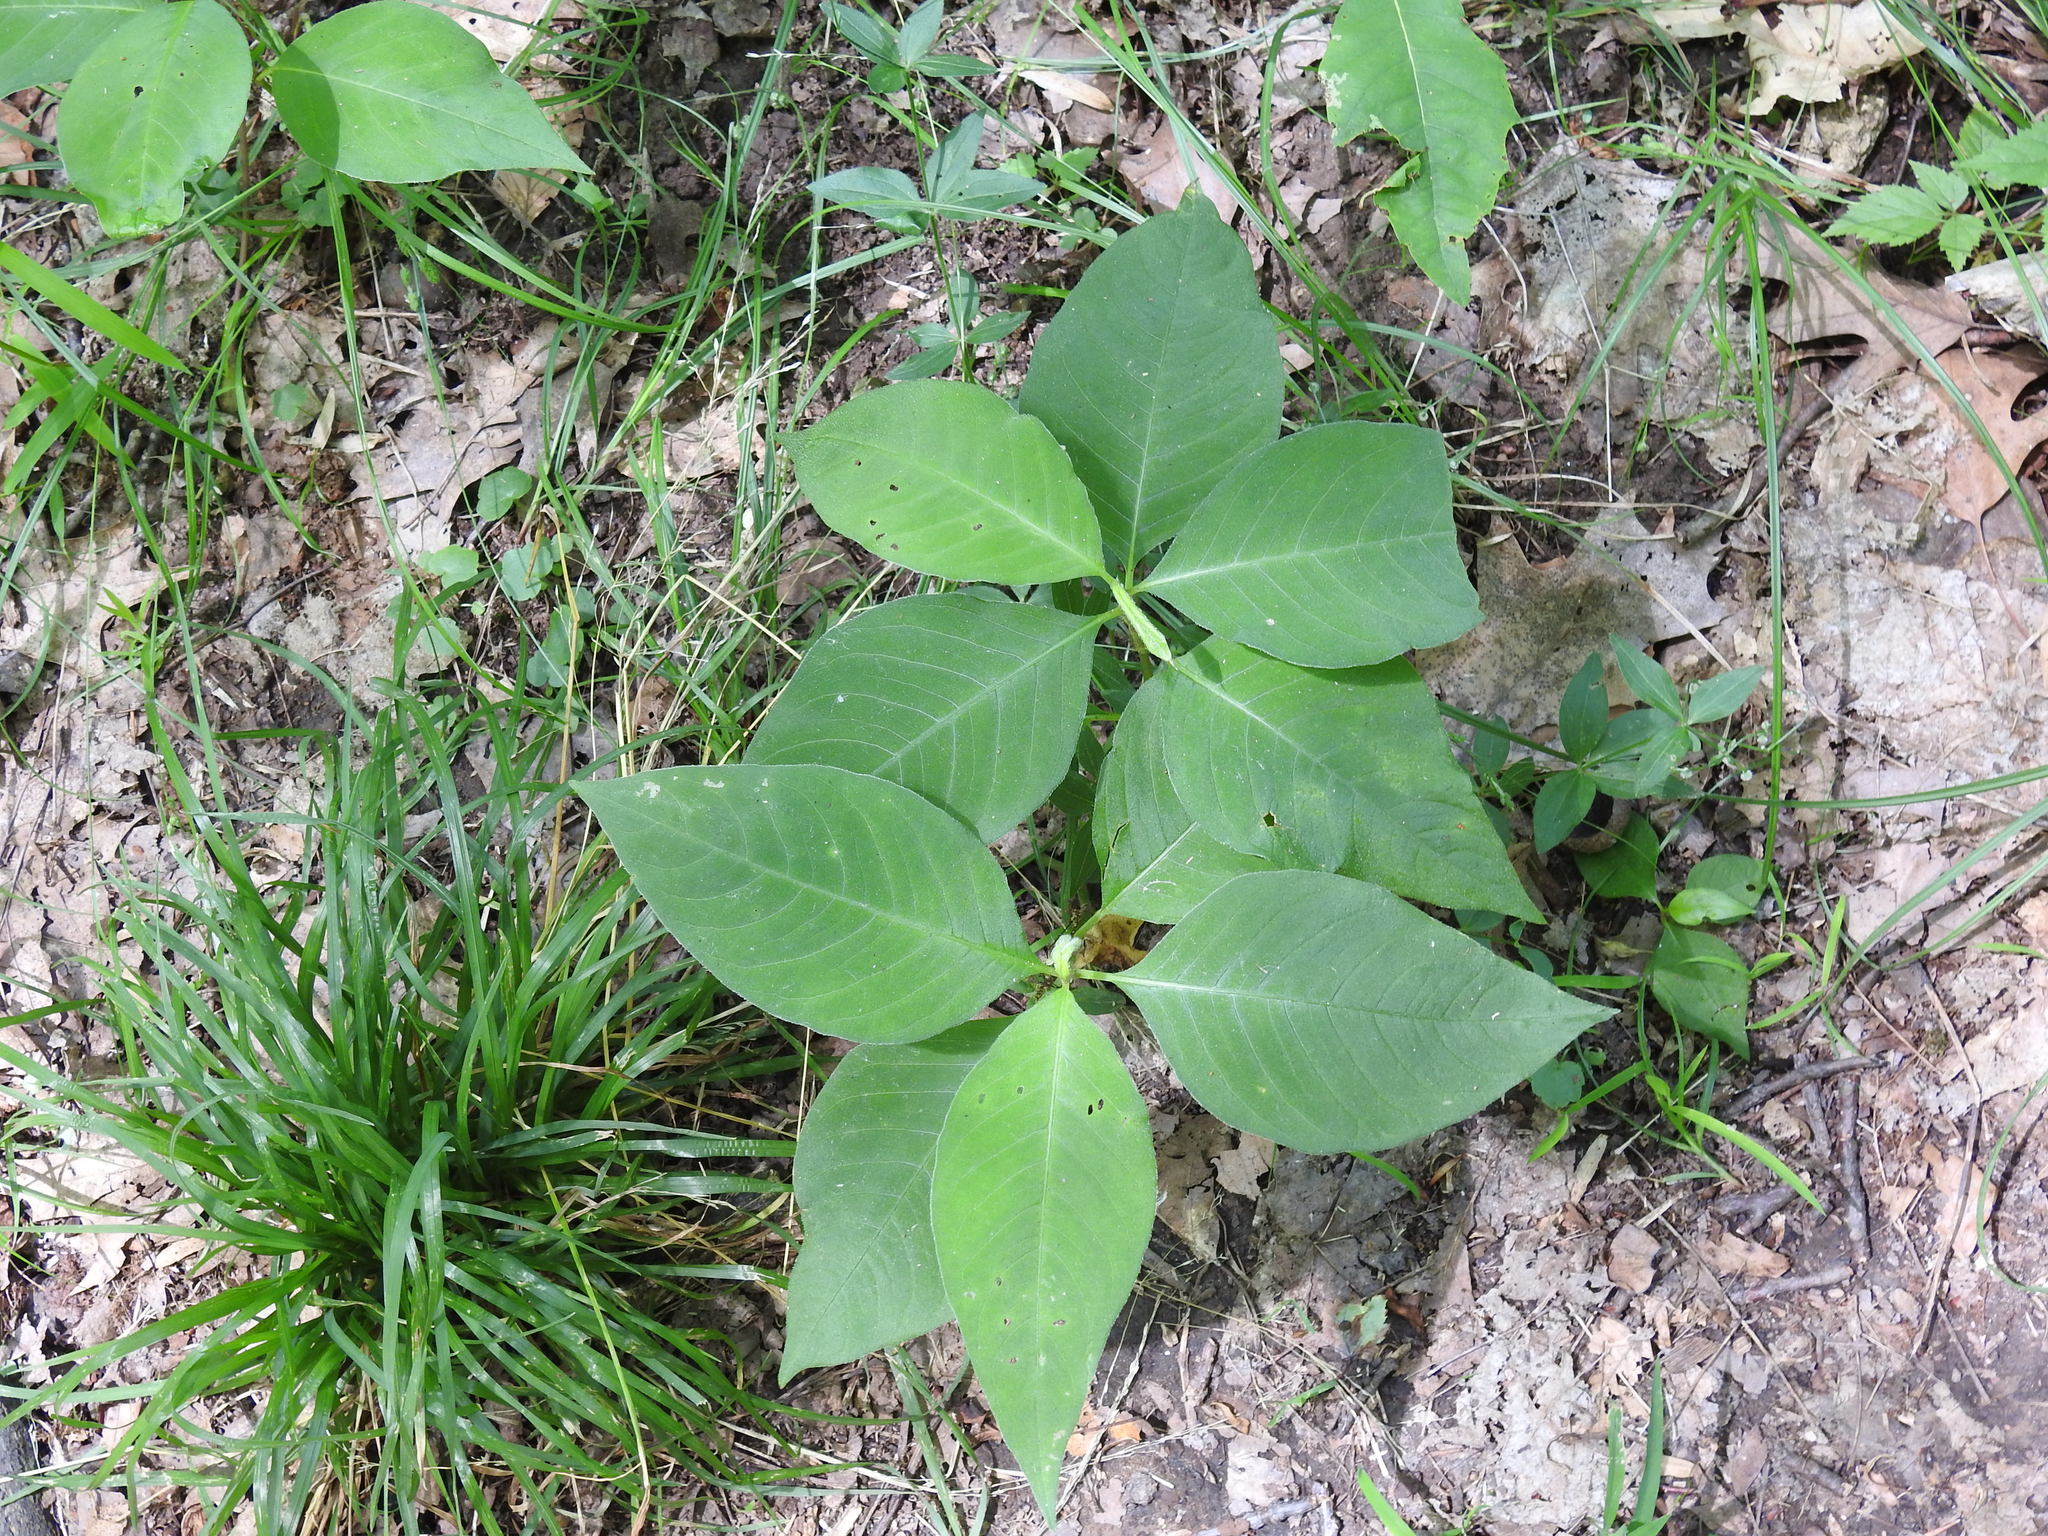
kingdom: Plantae
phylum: Tracheophyta
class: Magnoliopsida
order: Caryophyllales
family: Polygonaceae
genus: Persicaria
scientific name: Persicaria virginiana
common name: Jumpseed
